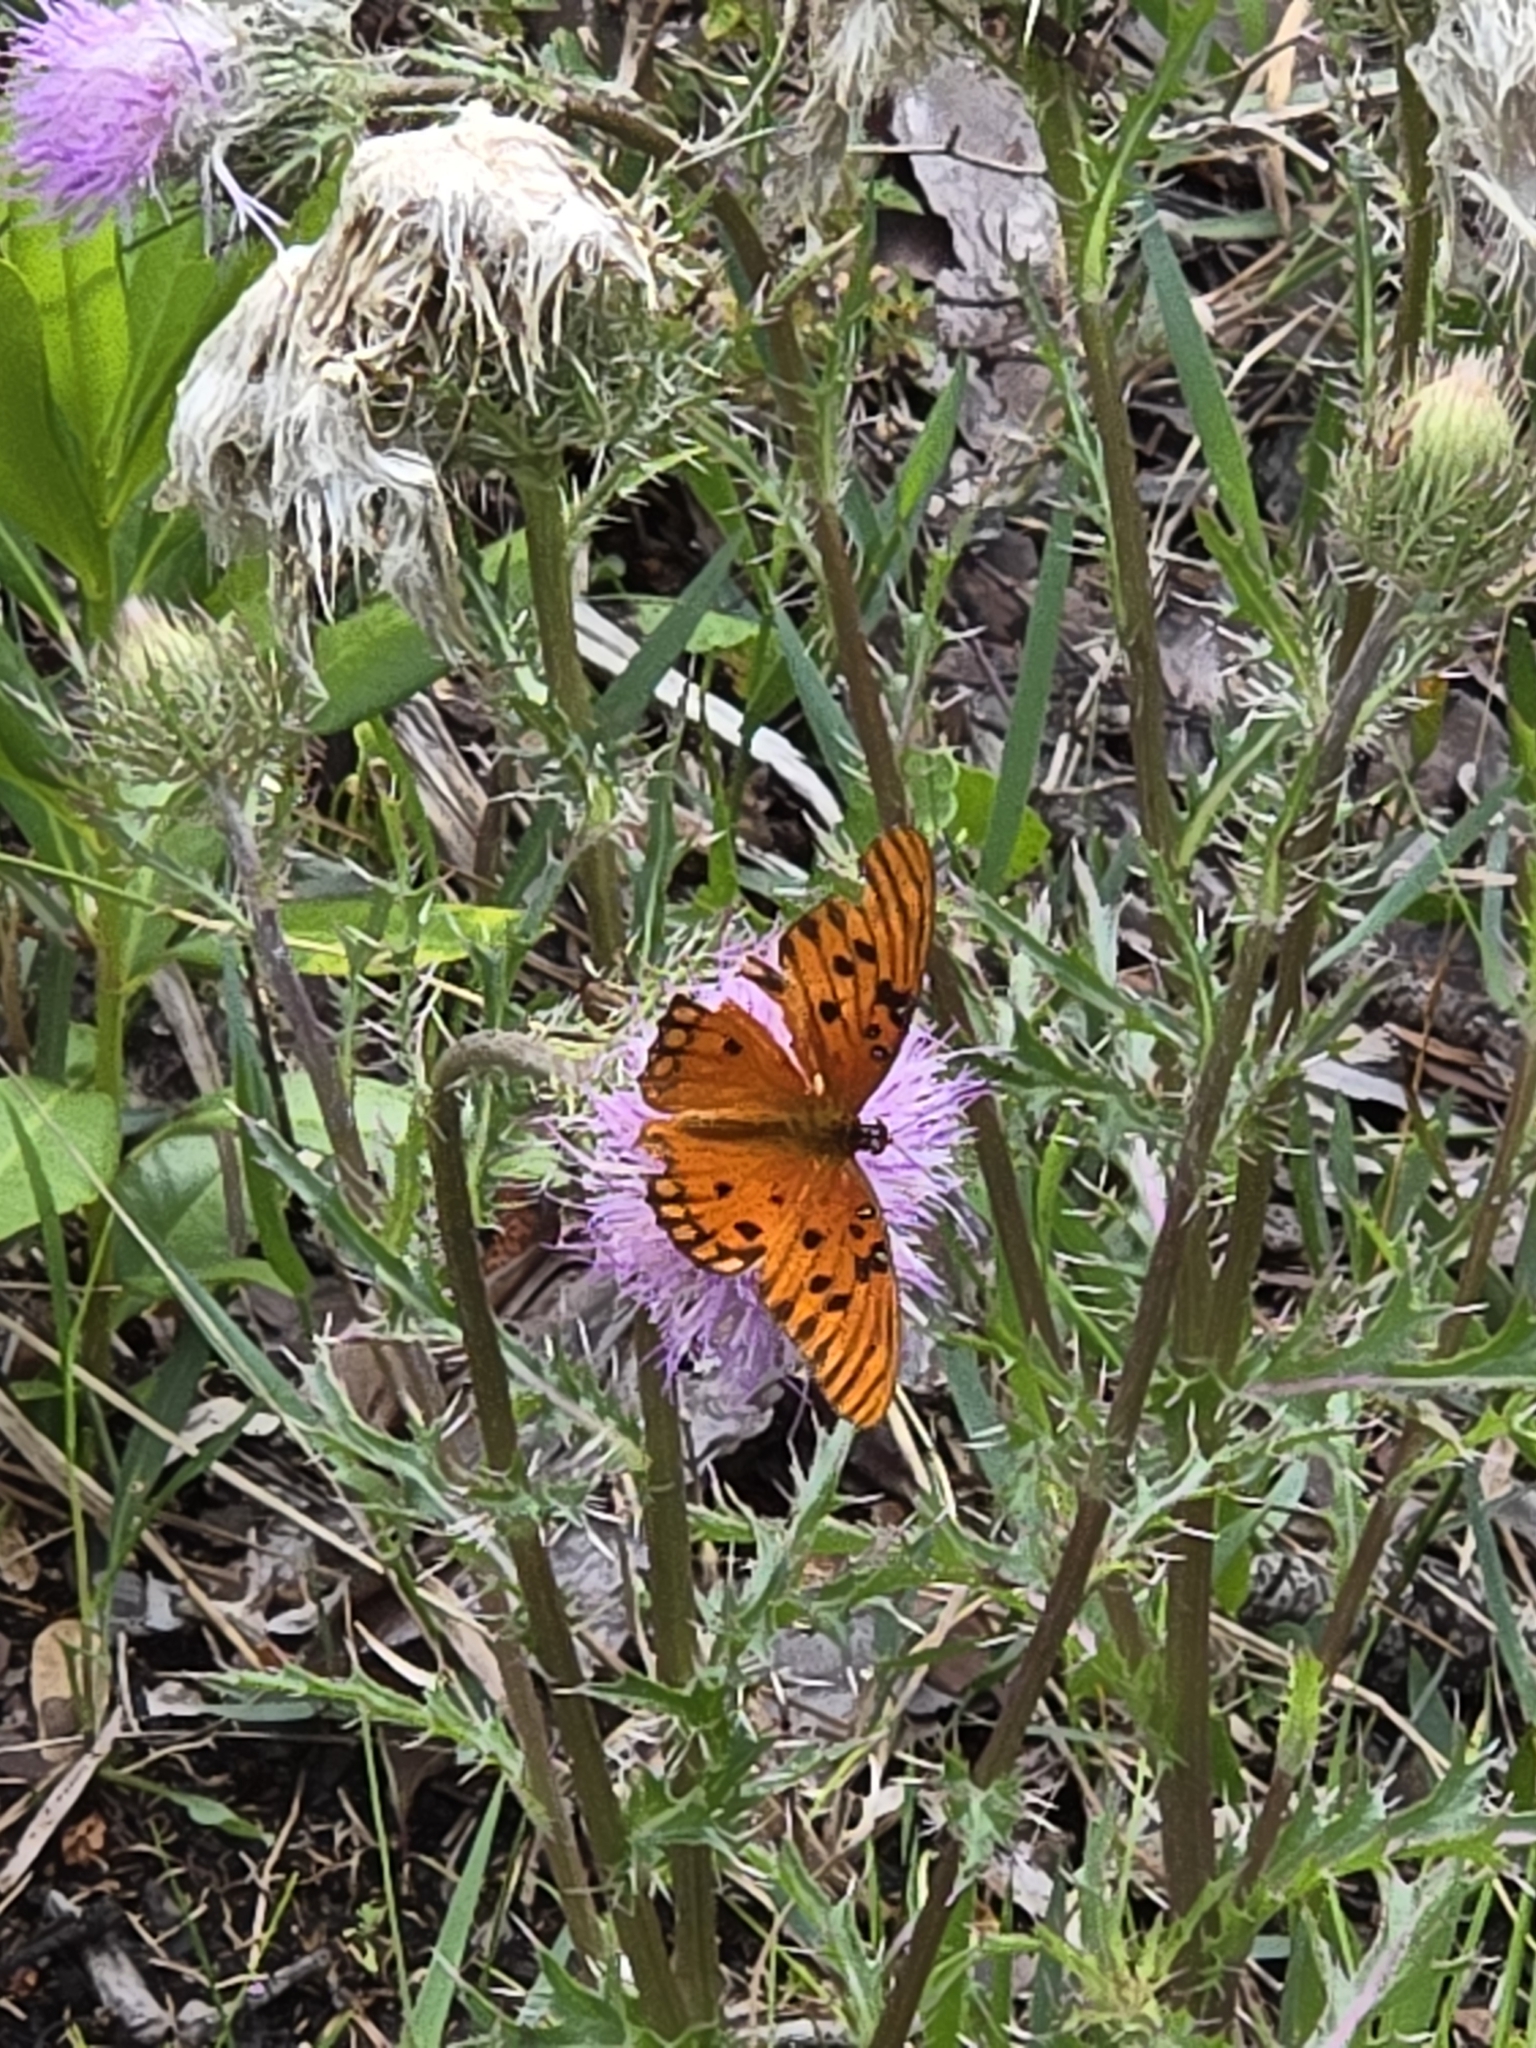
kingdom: Animalia
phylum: Arthropoda
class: Insecta
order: Lepidoptera
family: Nymphalidae
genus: Dione
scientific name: Dione vanillae
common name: Gulf fritillary
